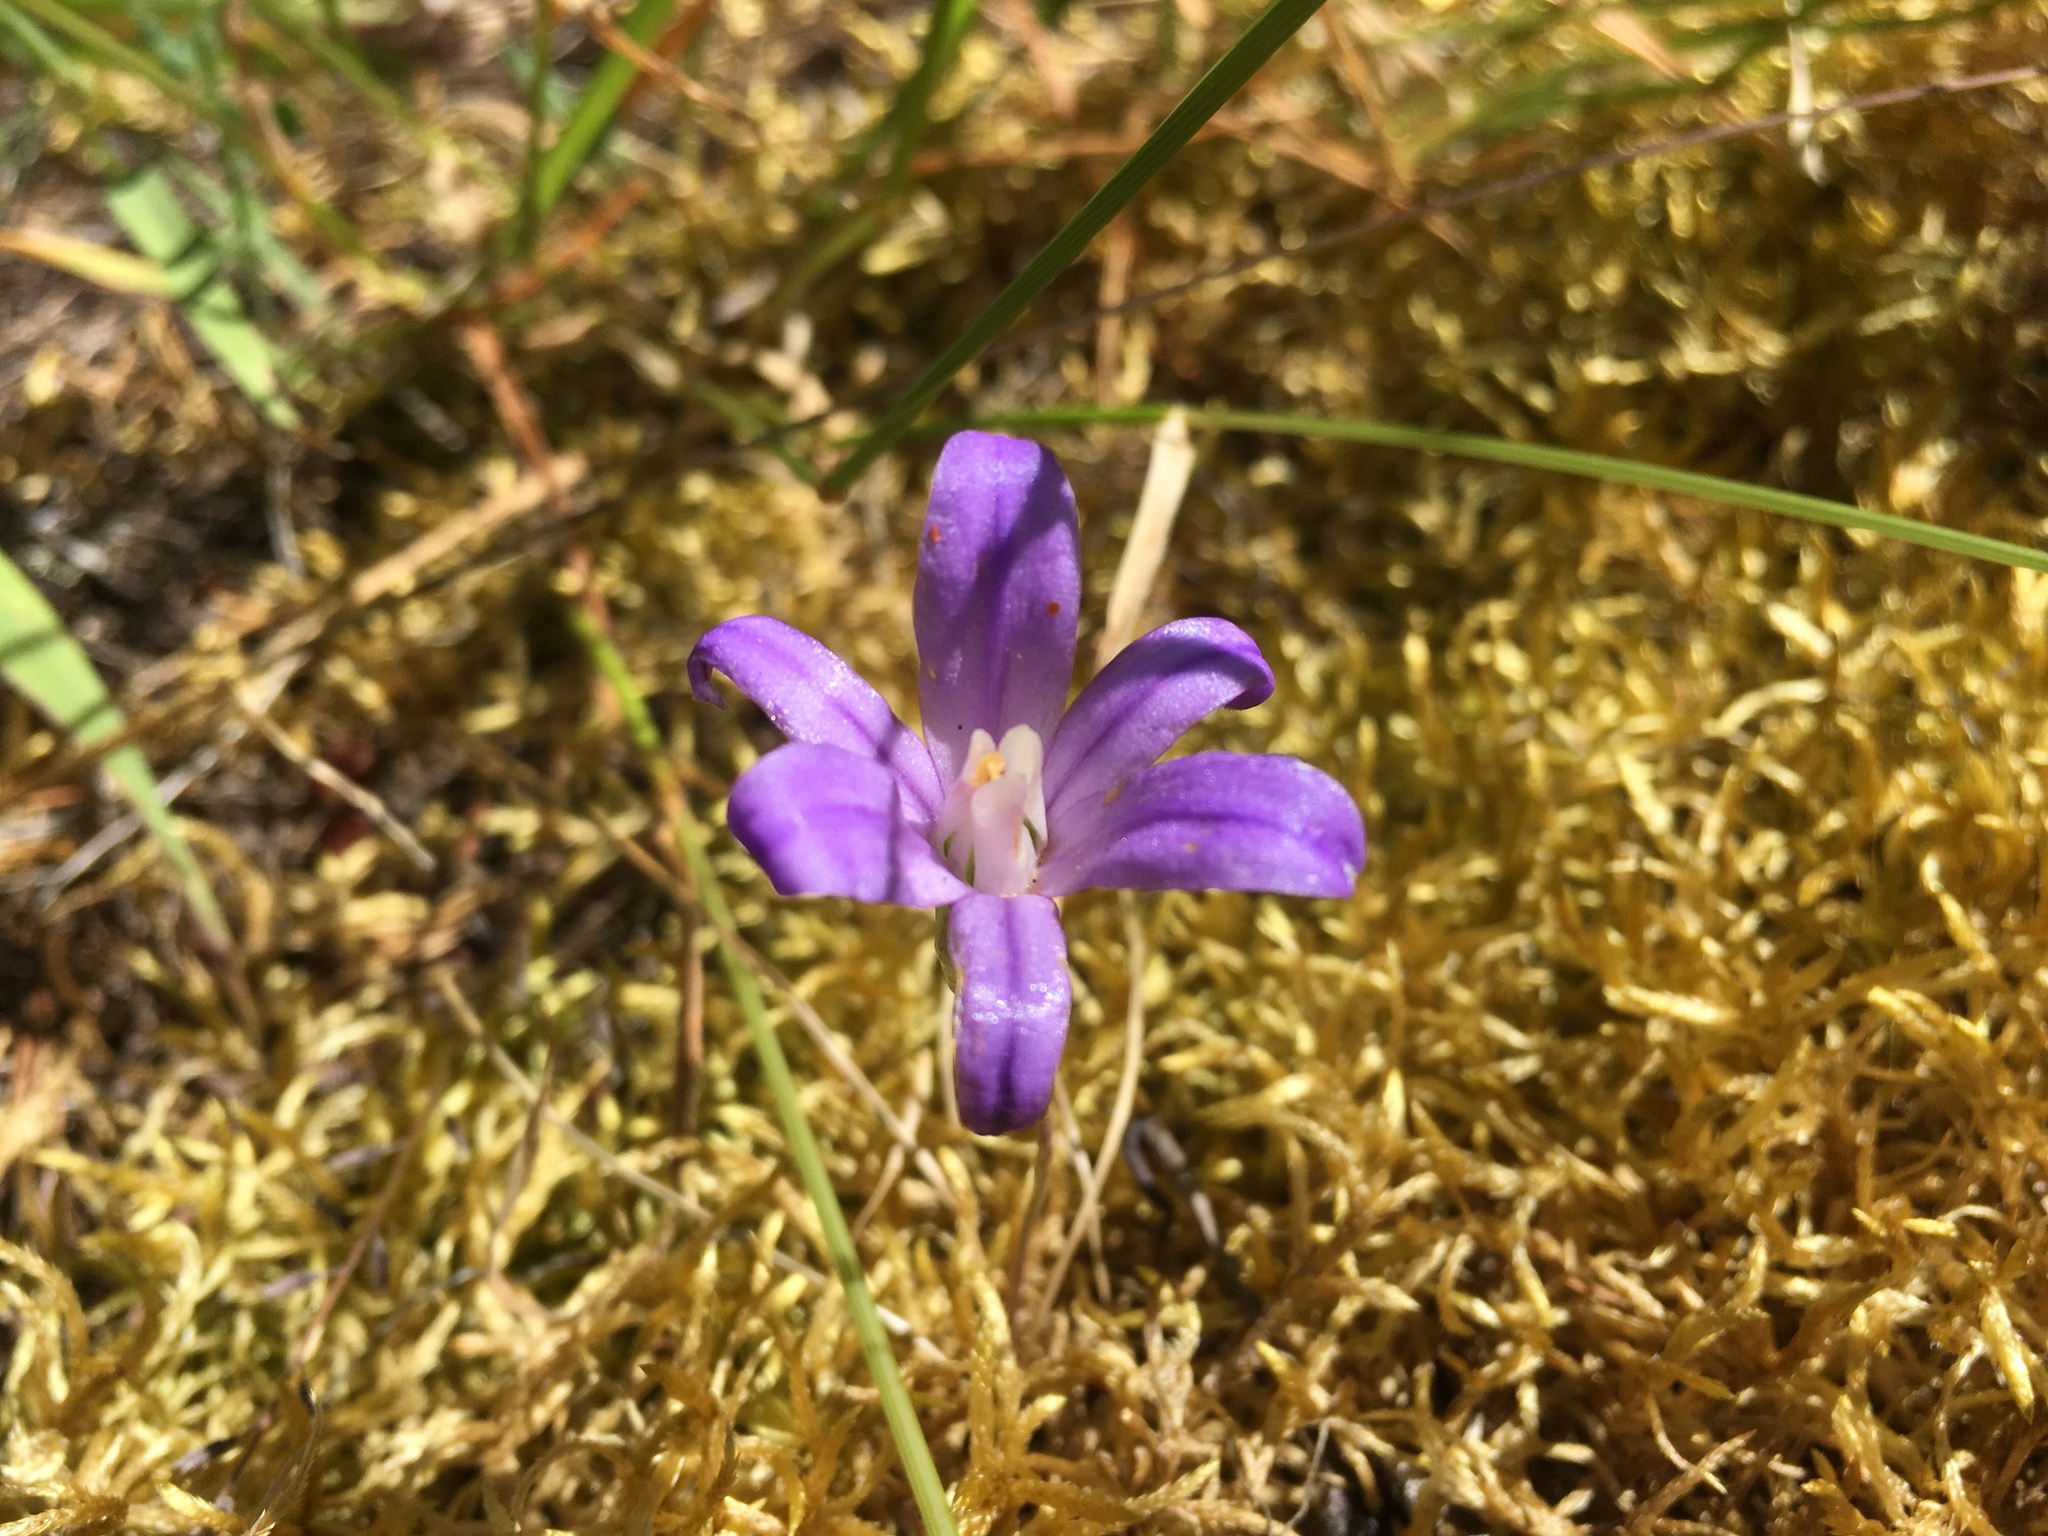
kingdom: Plantae
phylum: Tracheophyta
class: Liliopsida
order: Asparagales
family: Asparagaceae
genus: Brodiaea
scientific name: Brodiaea coronaria
